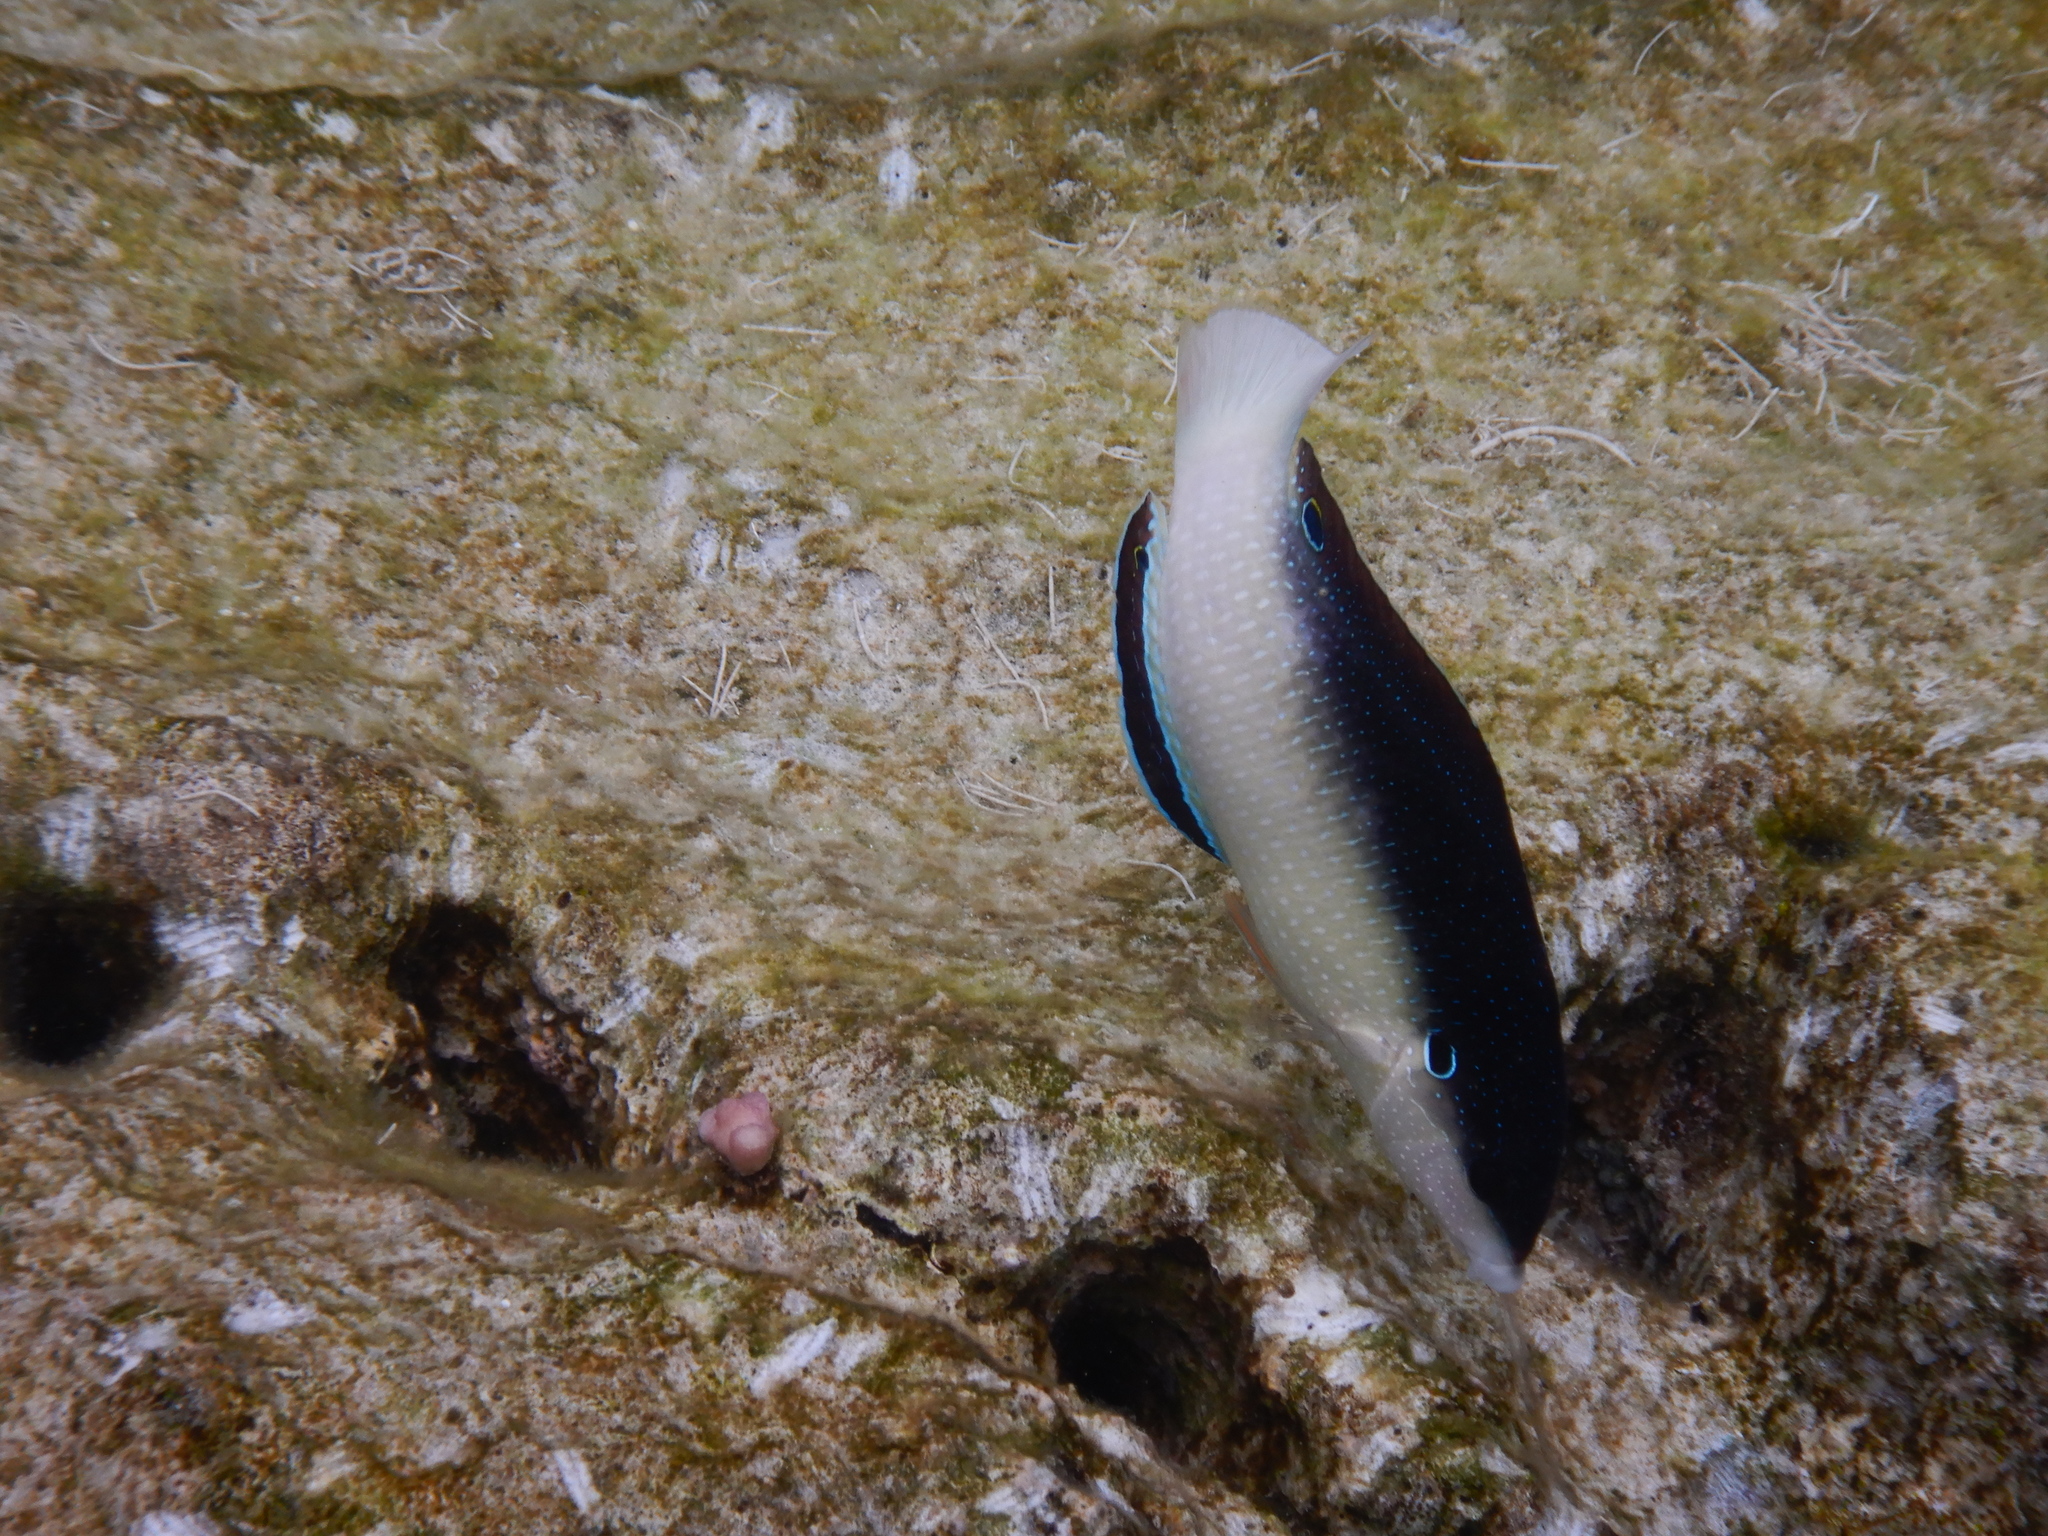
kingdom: Animalia
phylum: Chordata
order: Perciformes
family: Labridae
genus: Anampses
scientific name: Anampses neoguinaicus
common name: New guinea wrasse
